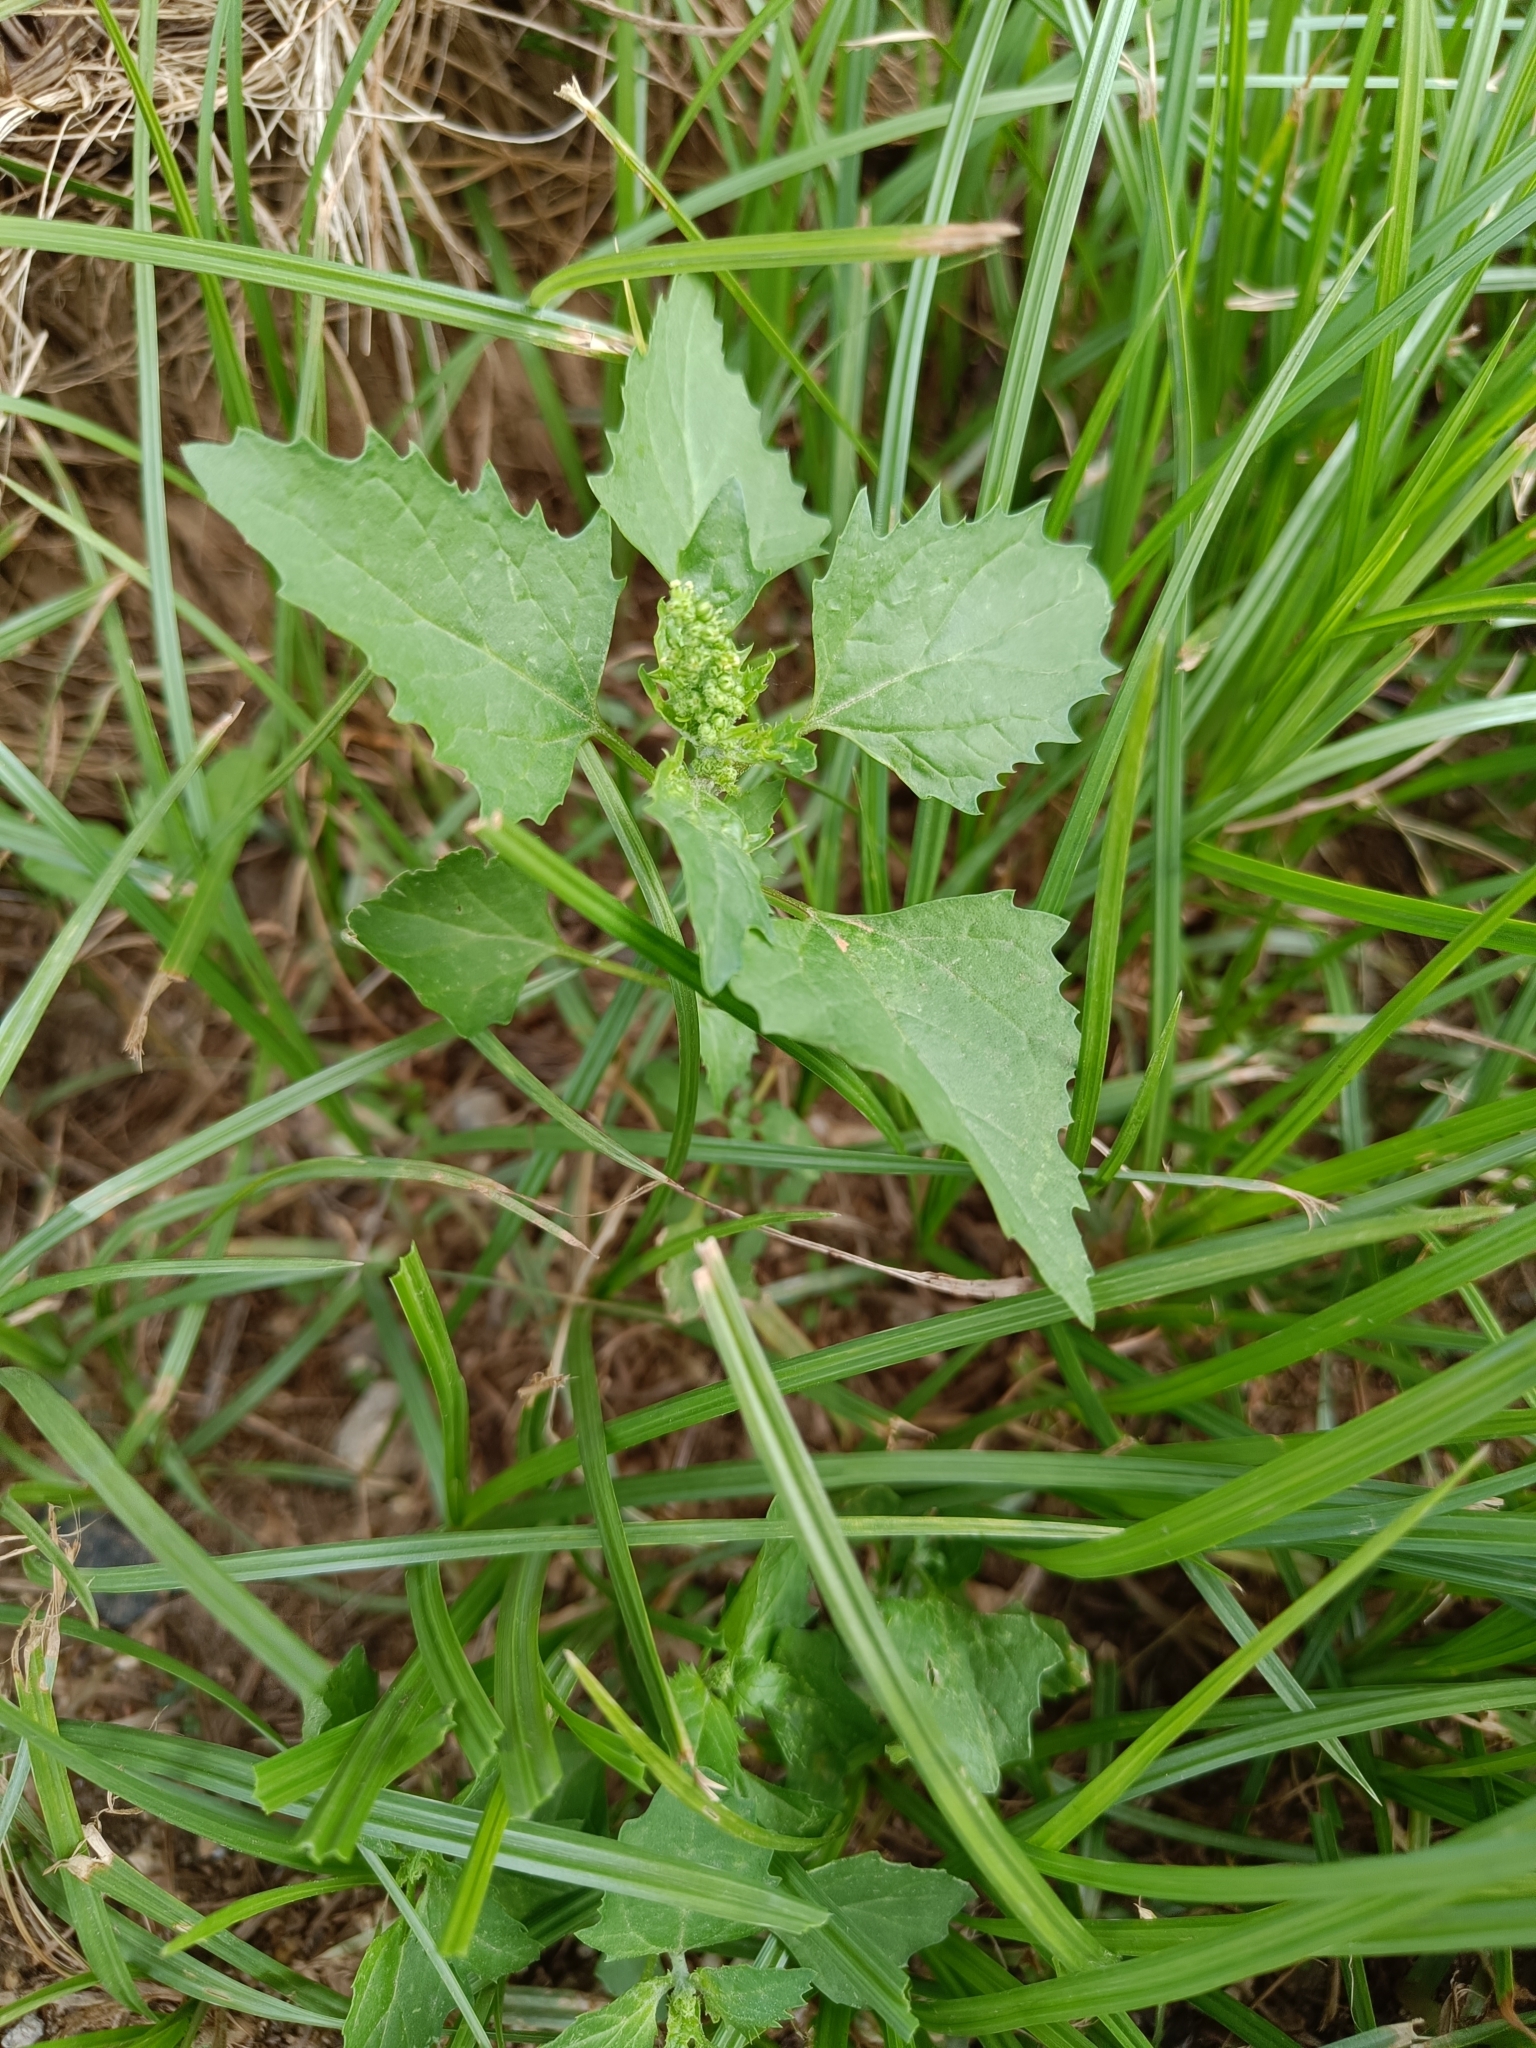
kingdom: Plantae
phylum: Tracheophyta
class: Magnoliopsida
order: Caryophyllales
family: Amaranthaceae
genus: Chenopodiastrum
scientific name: Chenopodiastrum murale
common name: Sowbane
